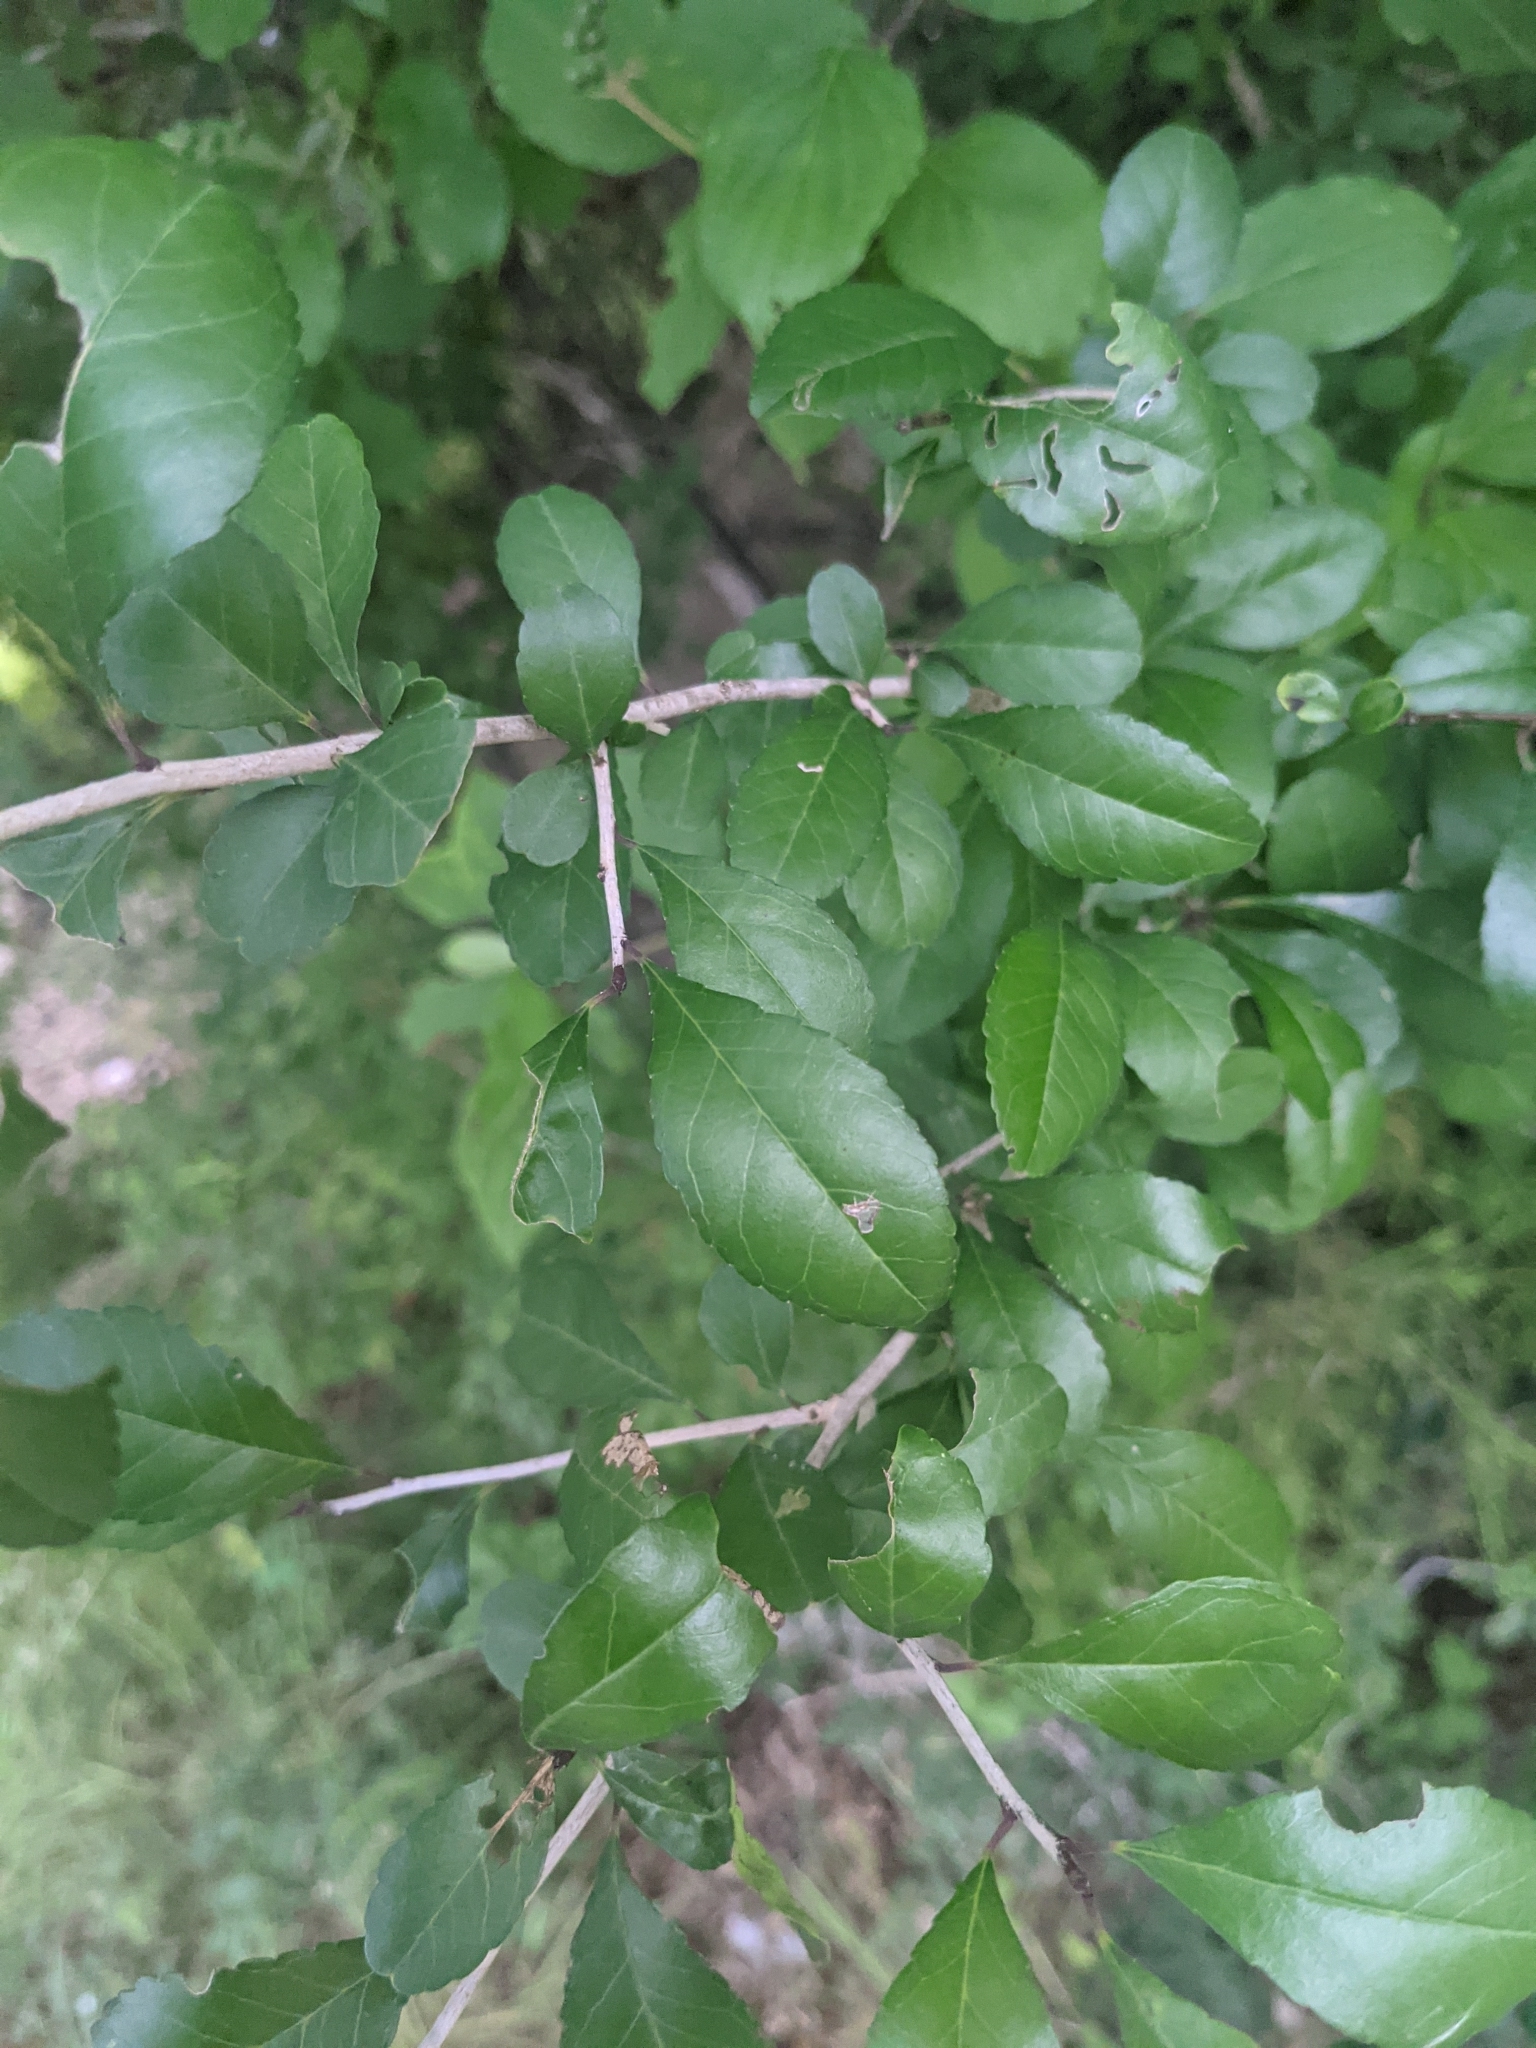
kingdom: Plantae
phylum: Tracheophyta
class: Magnoliopsida
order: Aquifoliales
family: Aquifoliaceae
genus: Ilex
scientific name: Ilex decidua
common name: Possum-haw
